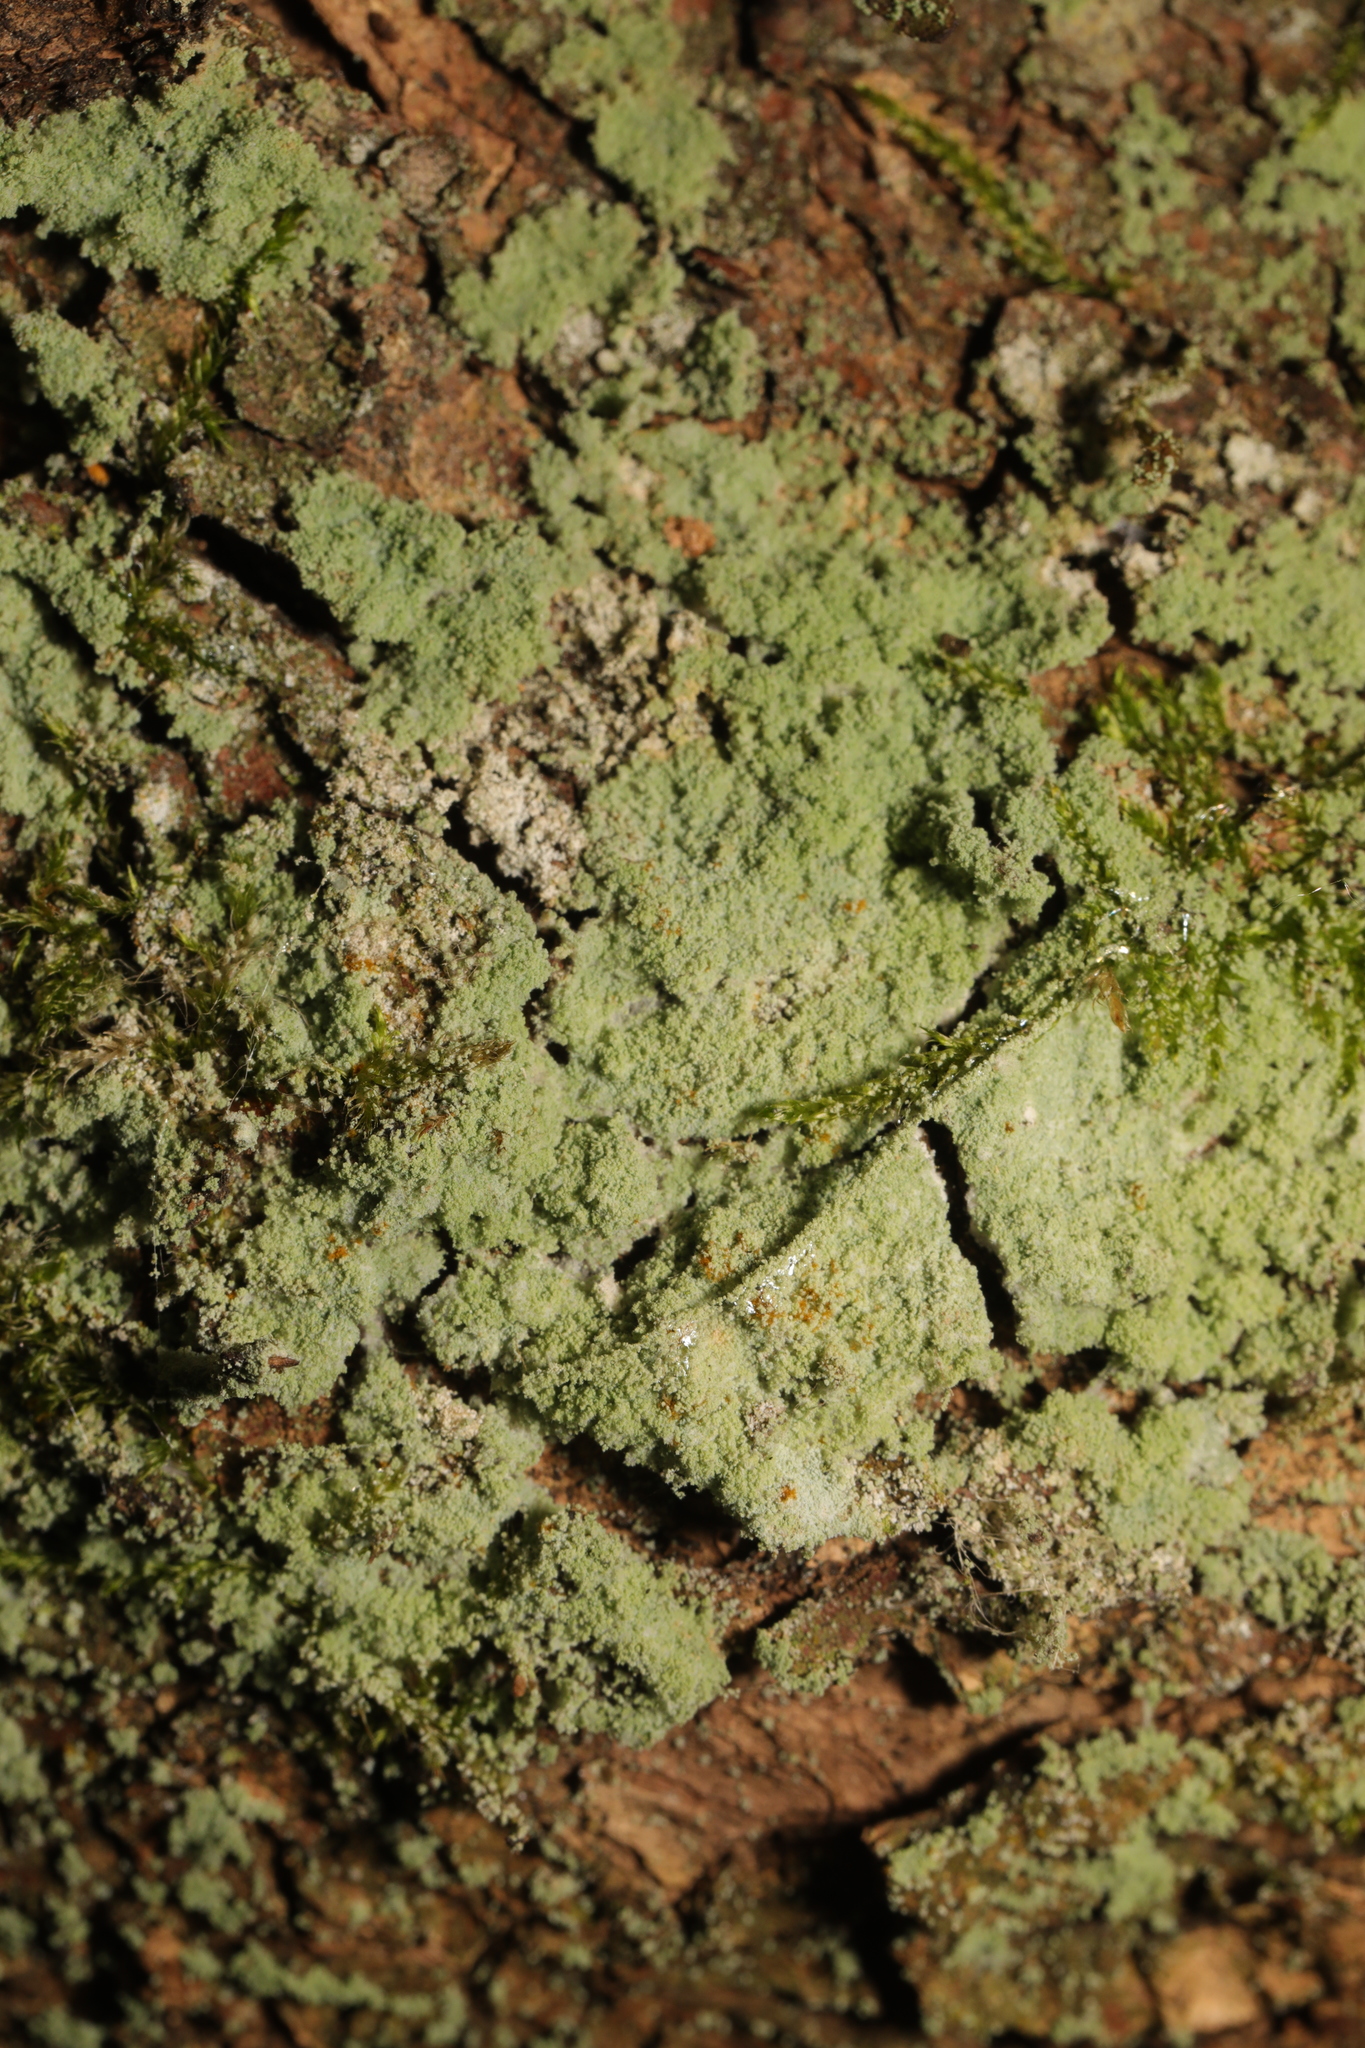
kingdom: Fungi
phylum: Ascomycota
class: Lecanoromycetes
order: Lecanorales
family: Stereocaulaceae
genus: Lepraria
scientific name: Lepraria
